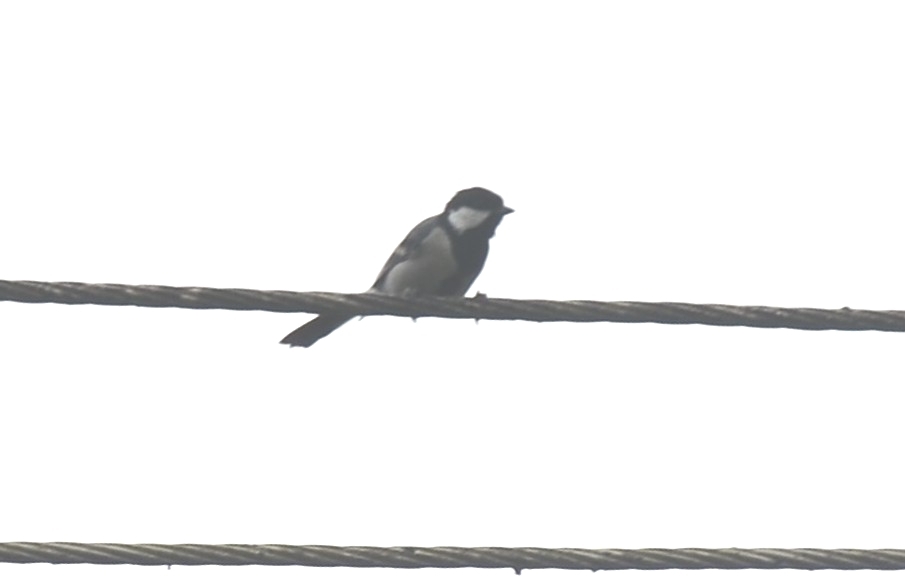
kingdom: Animalia
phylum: Chordata
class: Aves
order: Passeriformes
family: Paridae
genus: Parus
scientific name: Parus cinereus
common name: Cinereous tit
